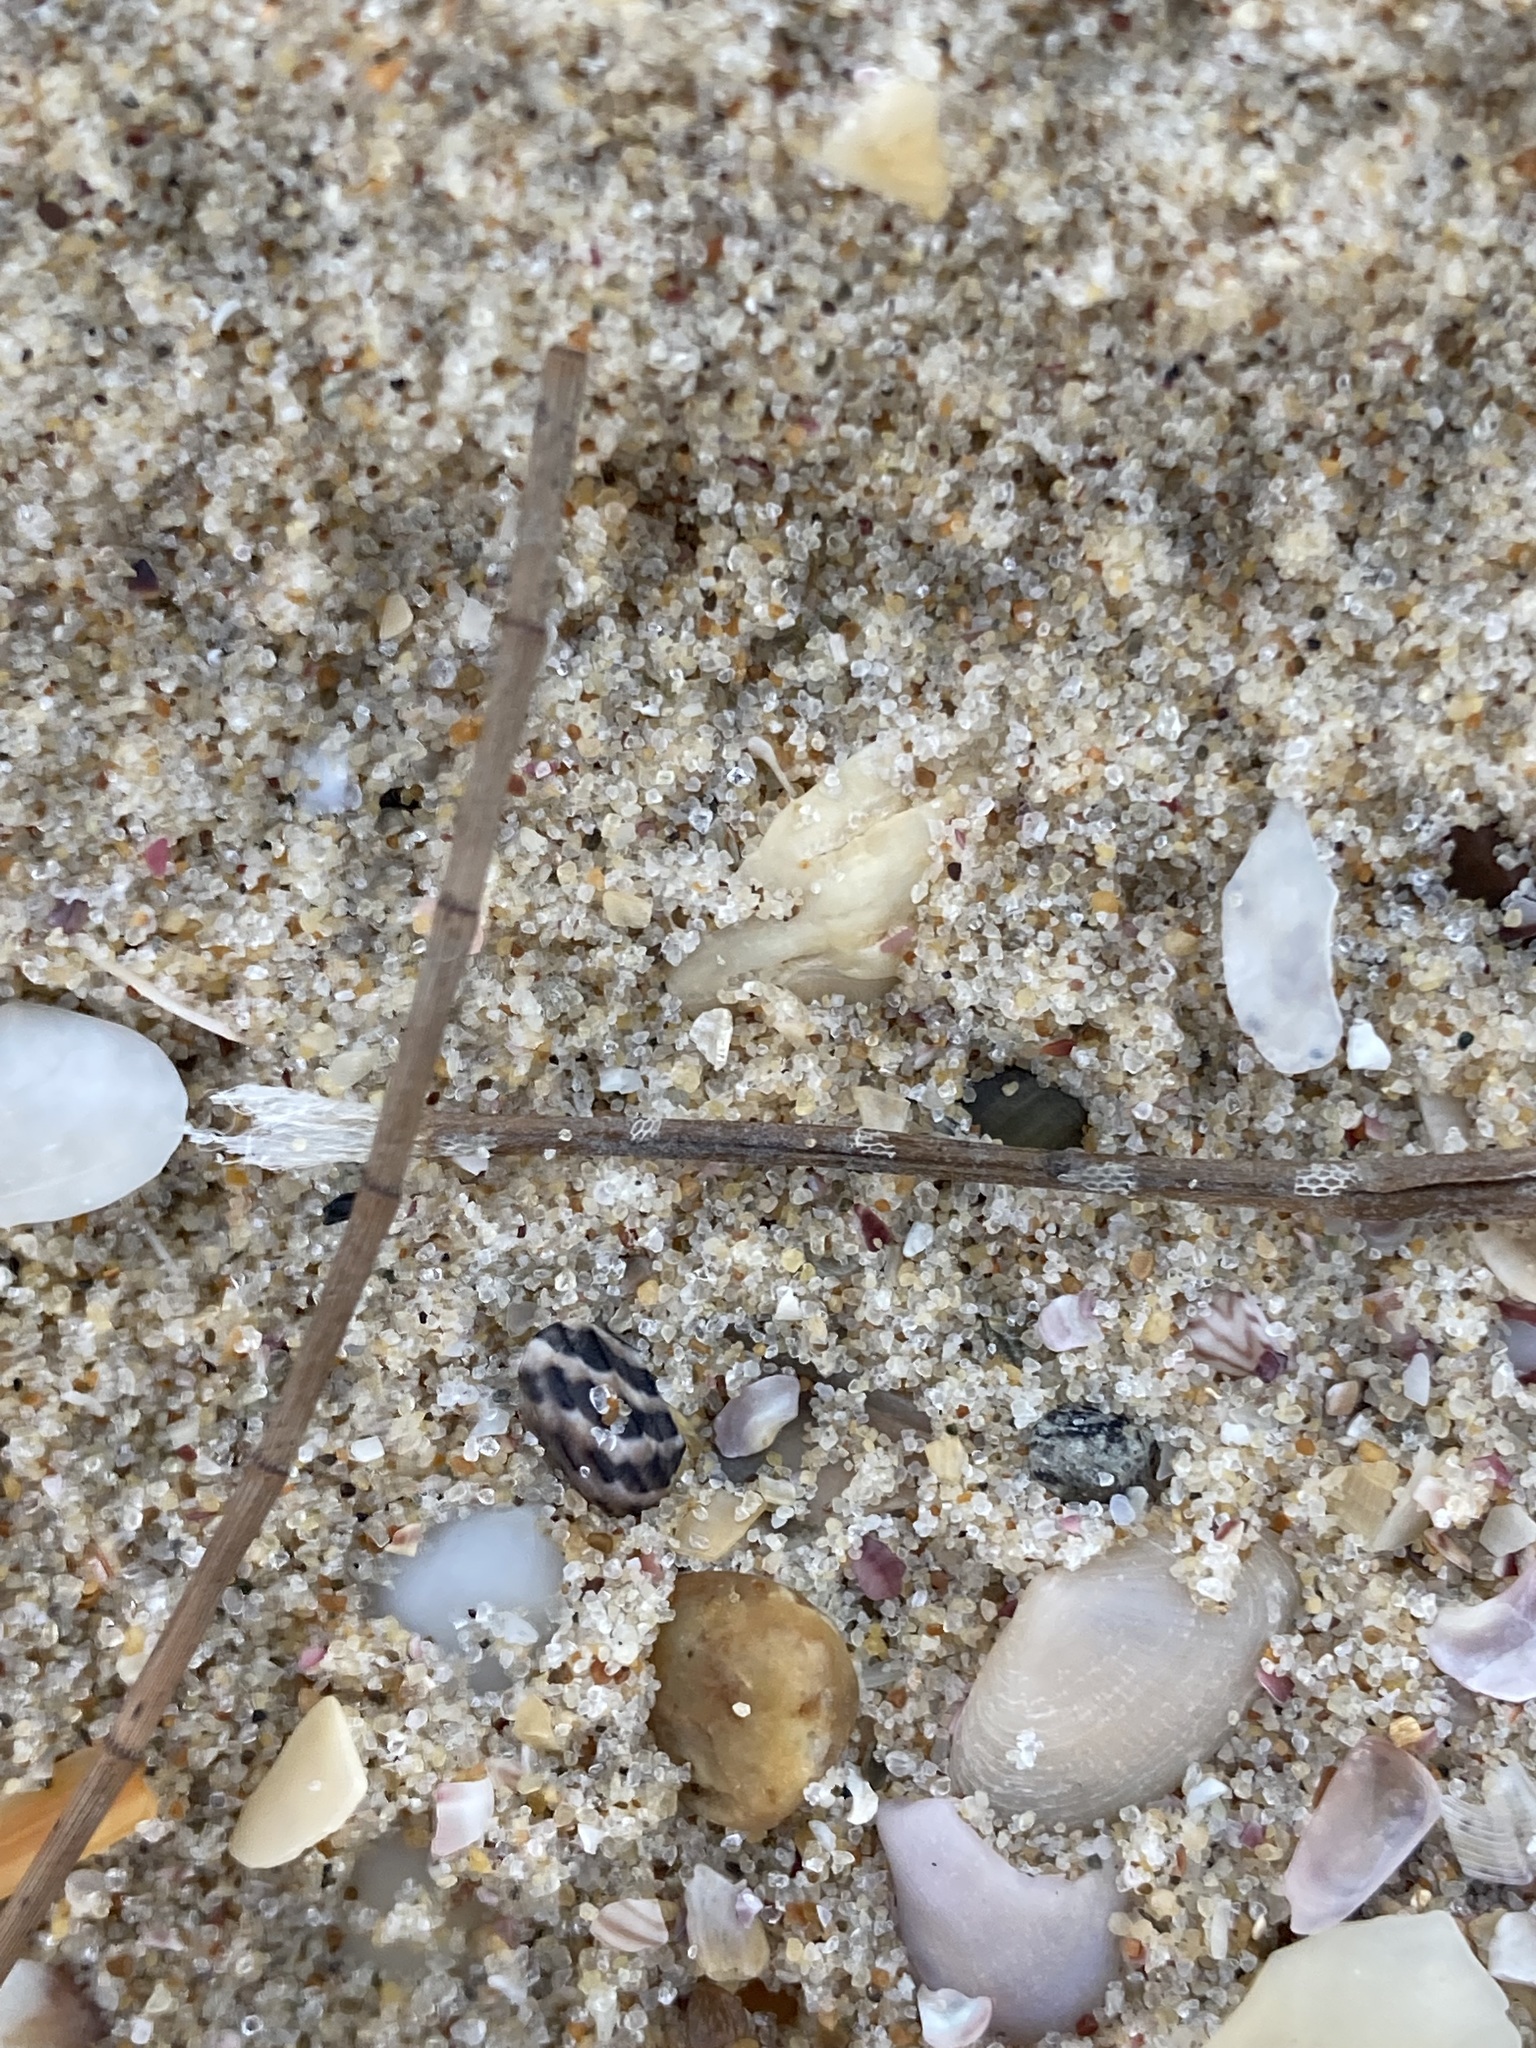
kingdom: Animalia
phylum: Mollusca
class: Gastropoda
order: Trochida
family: Trochidae
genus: Austrocochlea
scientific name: Austrocochlea porcata
